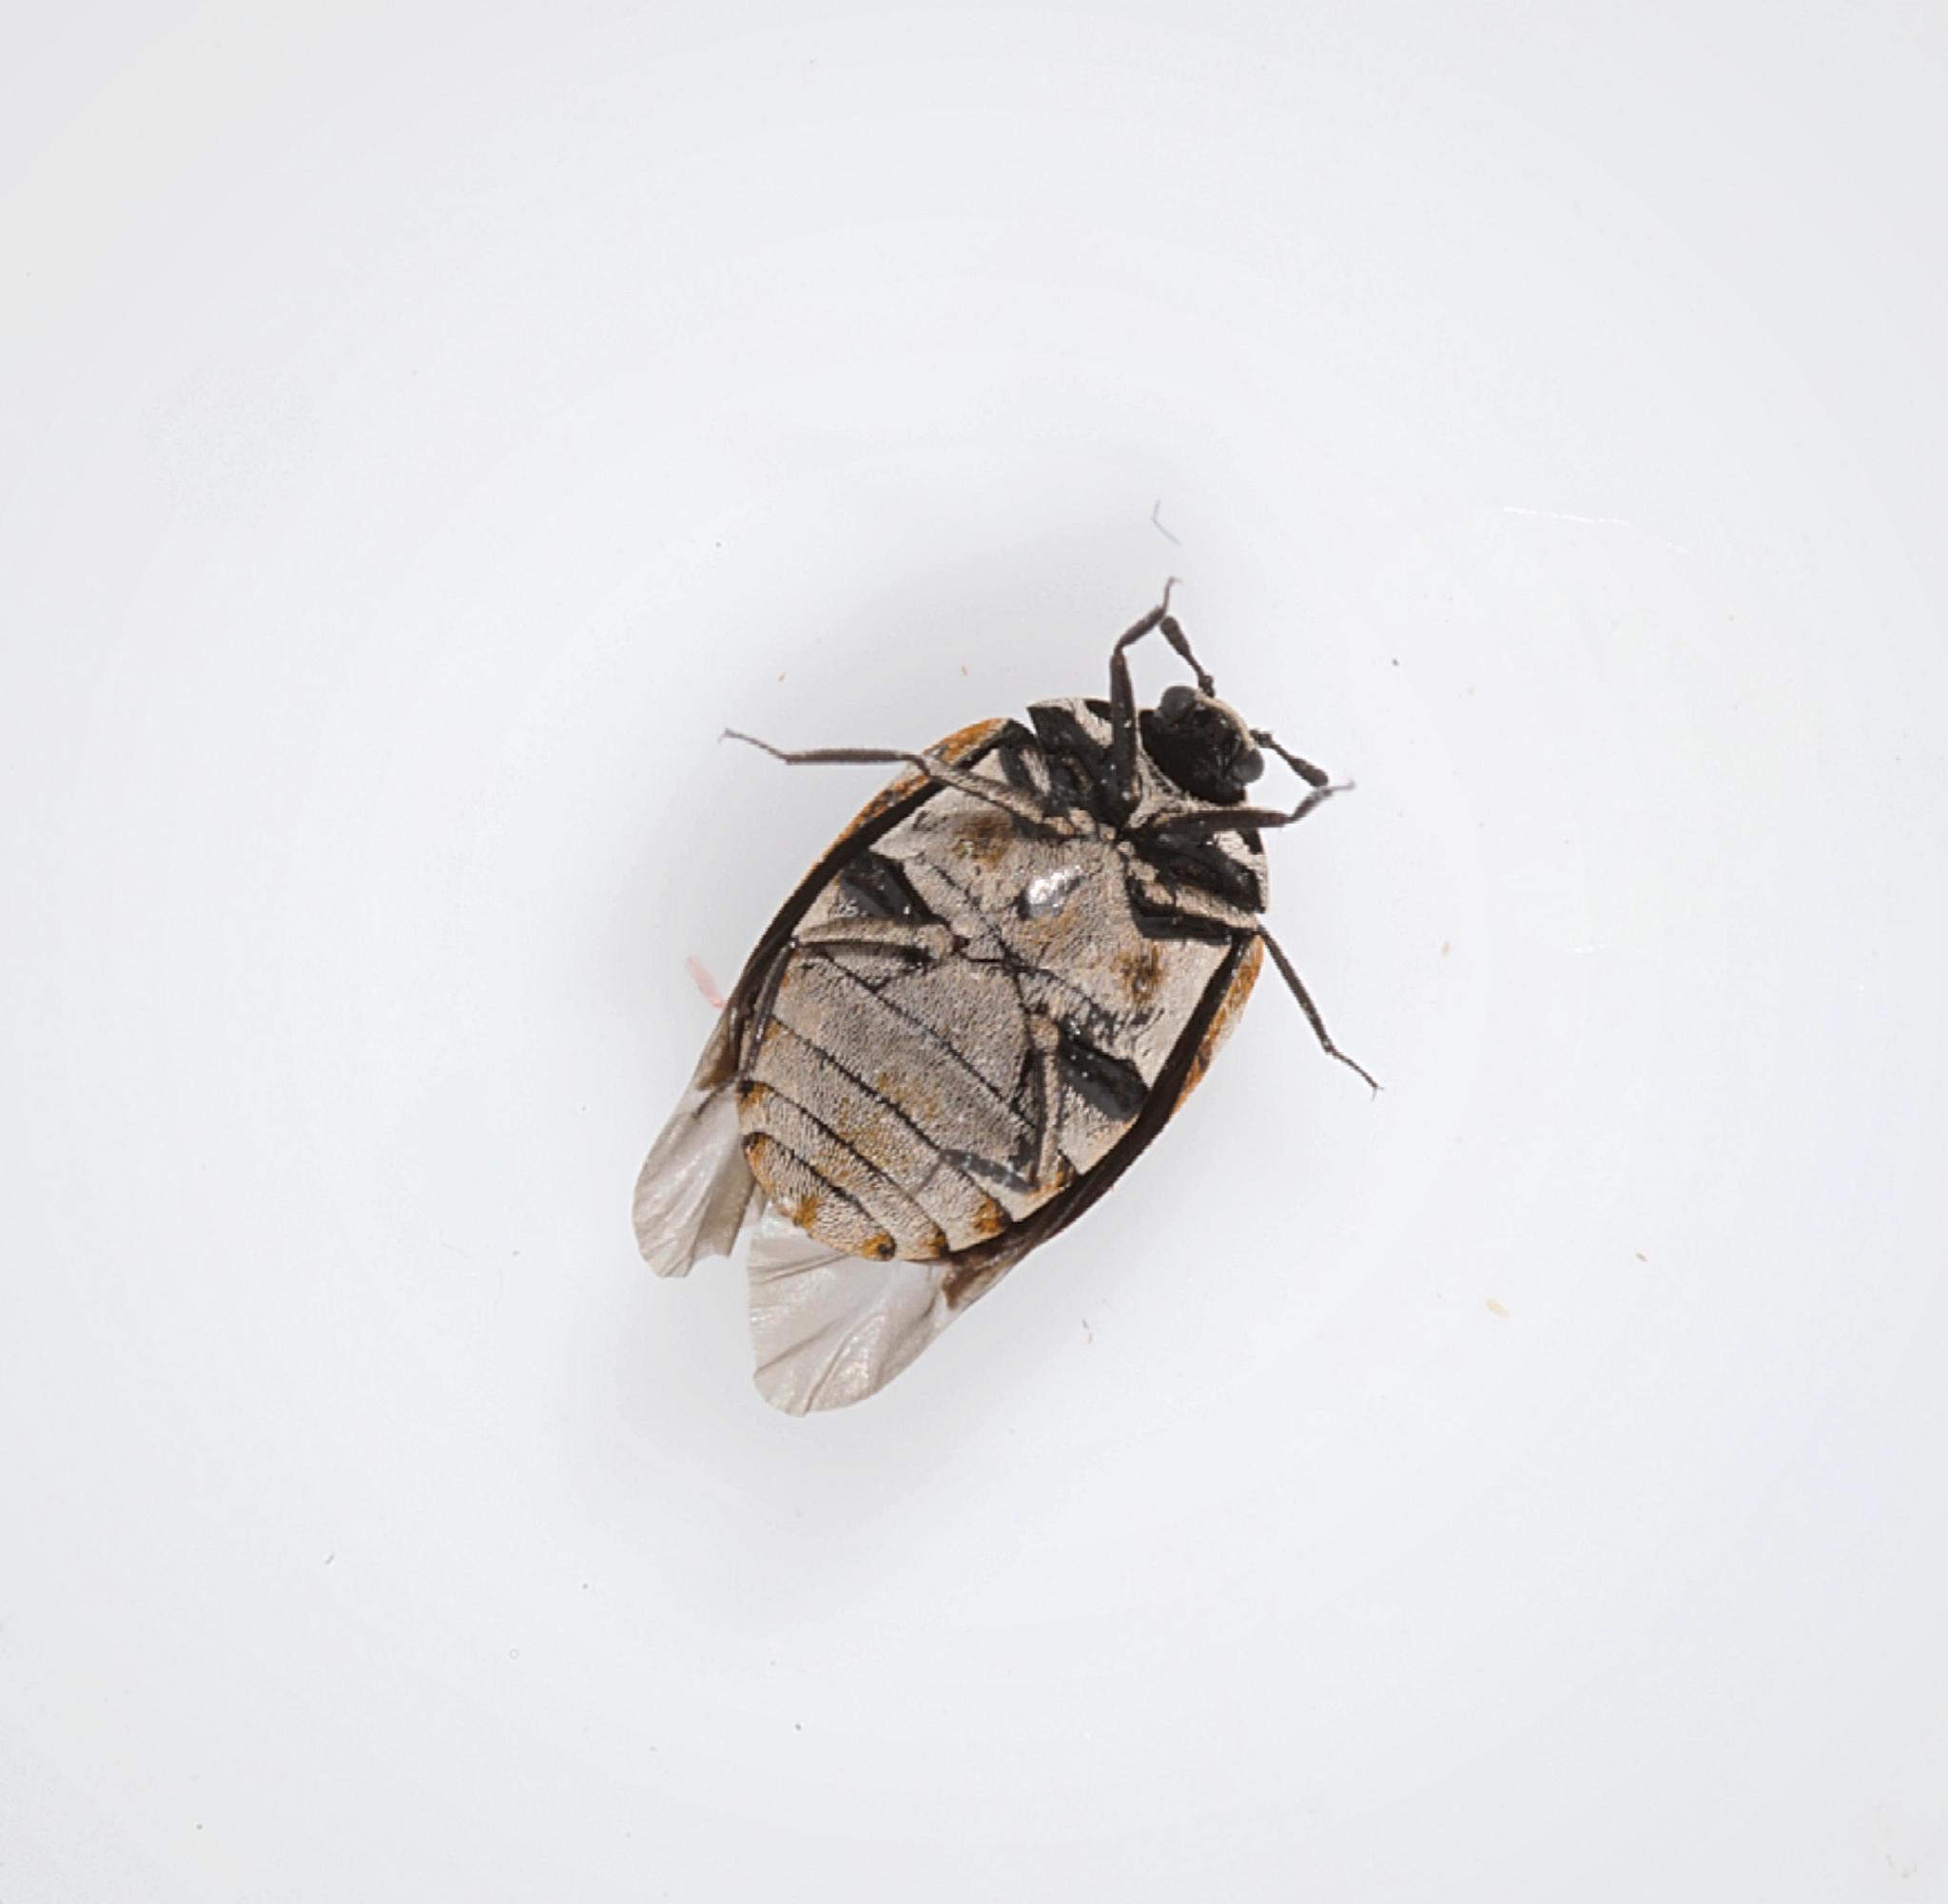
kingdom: Animalia
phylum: Arthropoda
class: Insecta
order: Coleoptera
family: Dermestidae
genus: Anthrenus
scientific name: Anthrenus verbasci
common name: Varied carpet beetle
